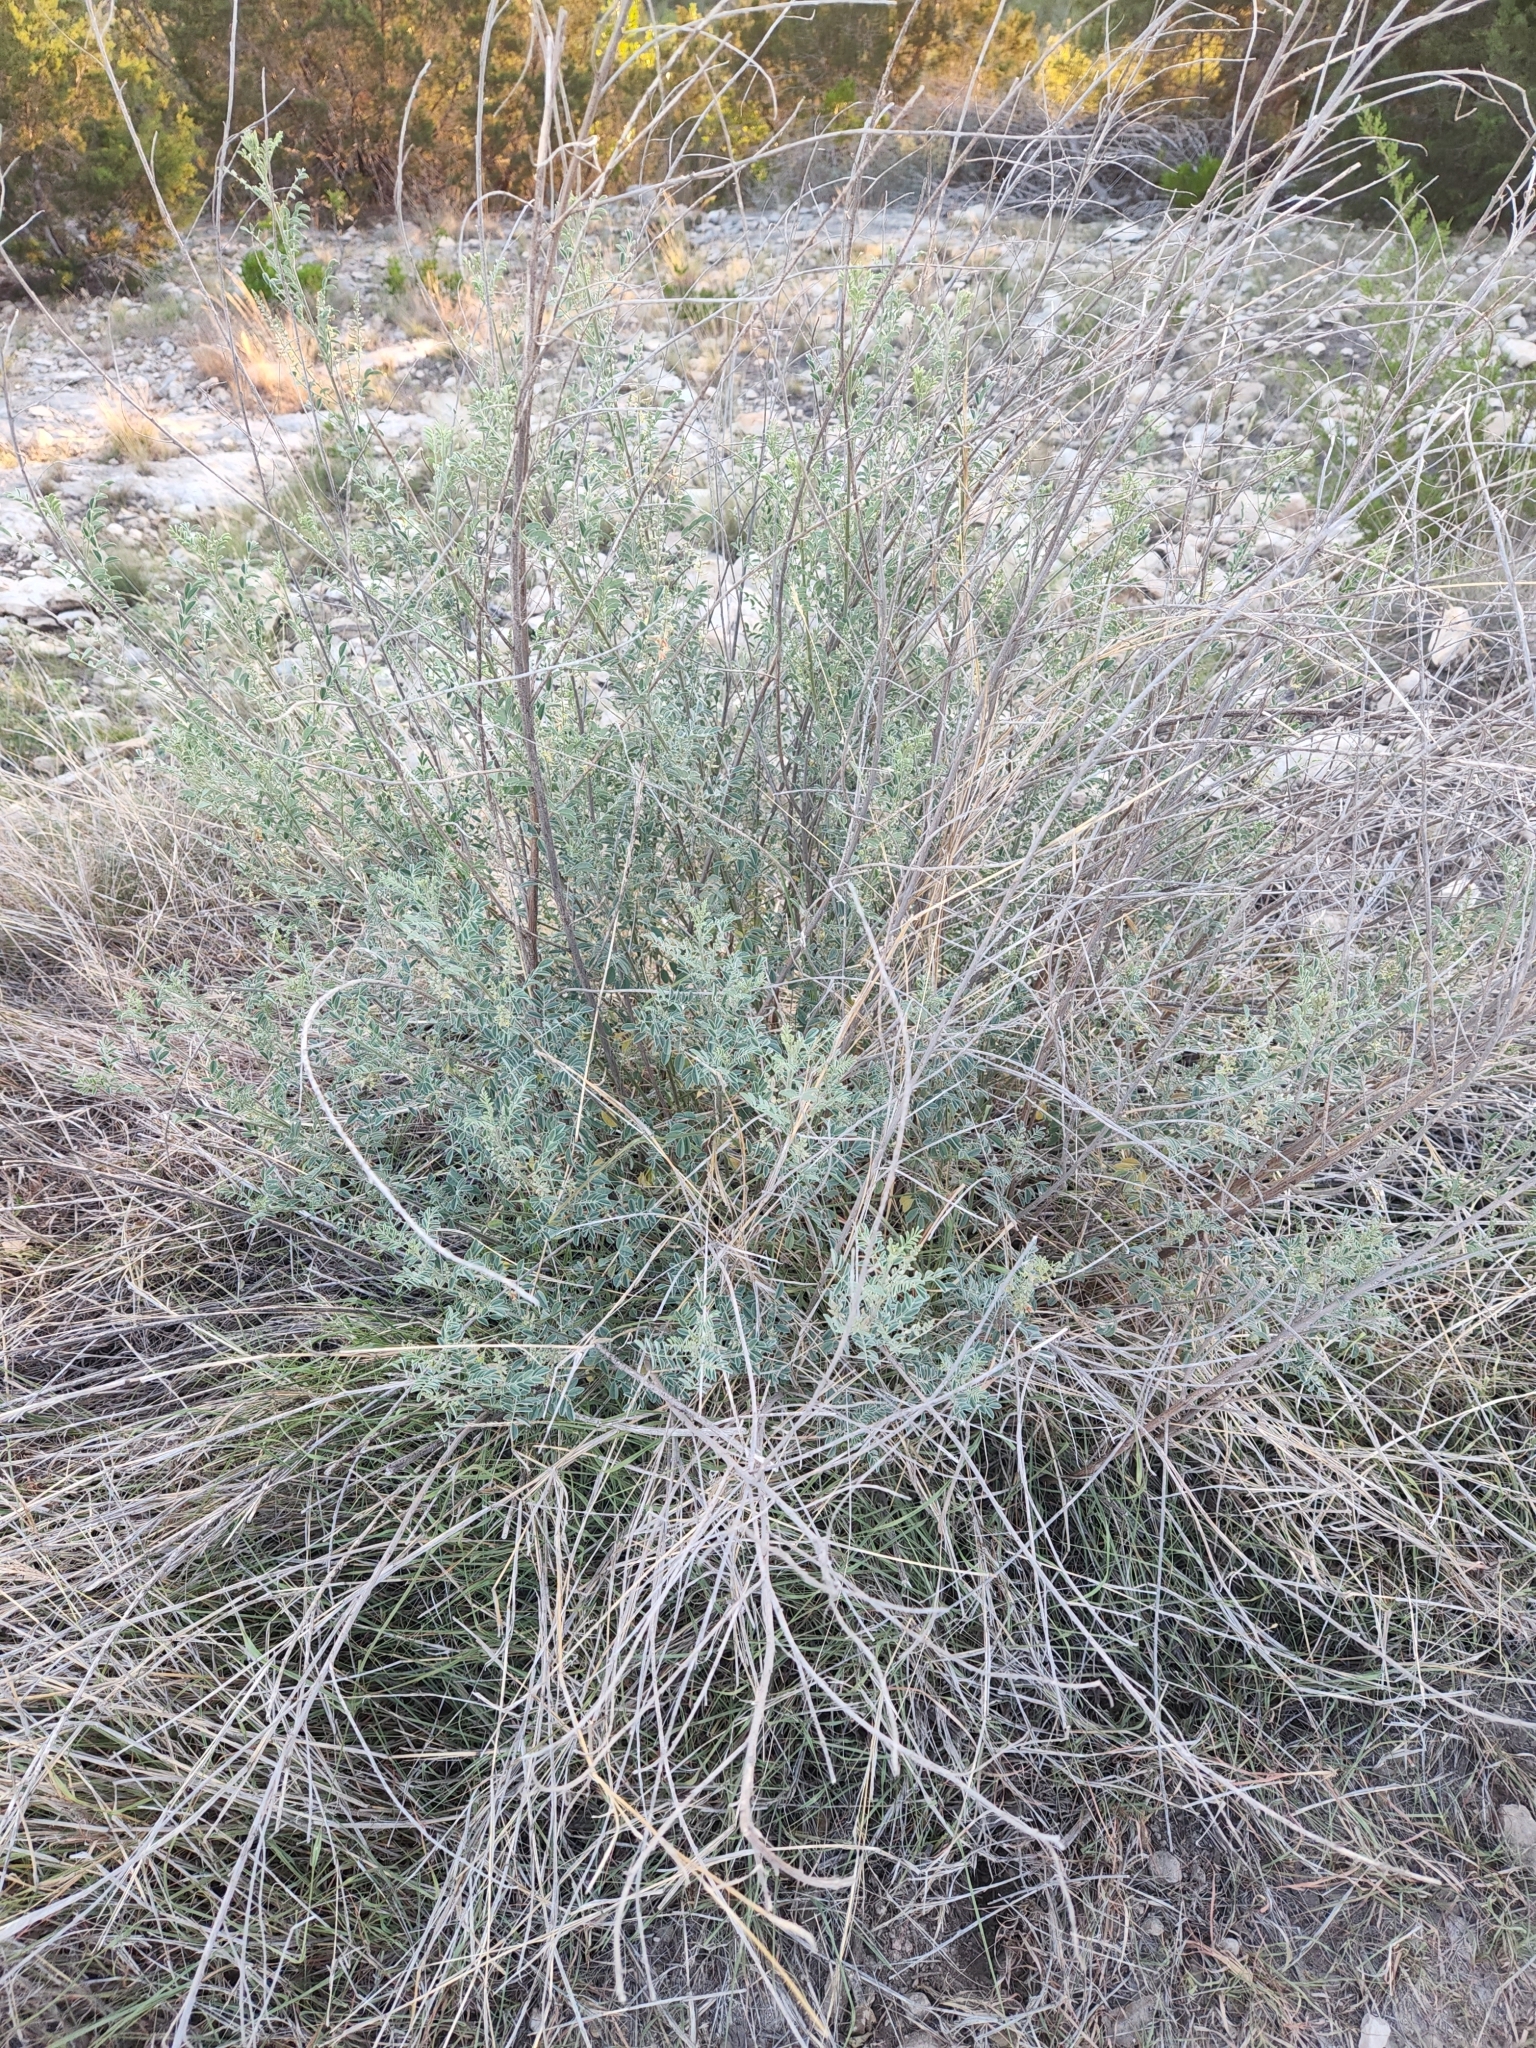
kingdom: Plantae
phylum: Tracheophyta
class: Magnoliopsida
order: Fabales
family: Fabaceae
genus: Indigofera
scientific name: Indigofera lindheimeriana
